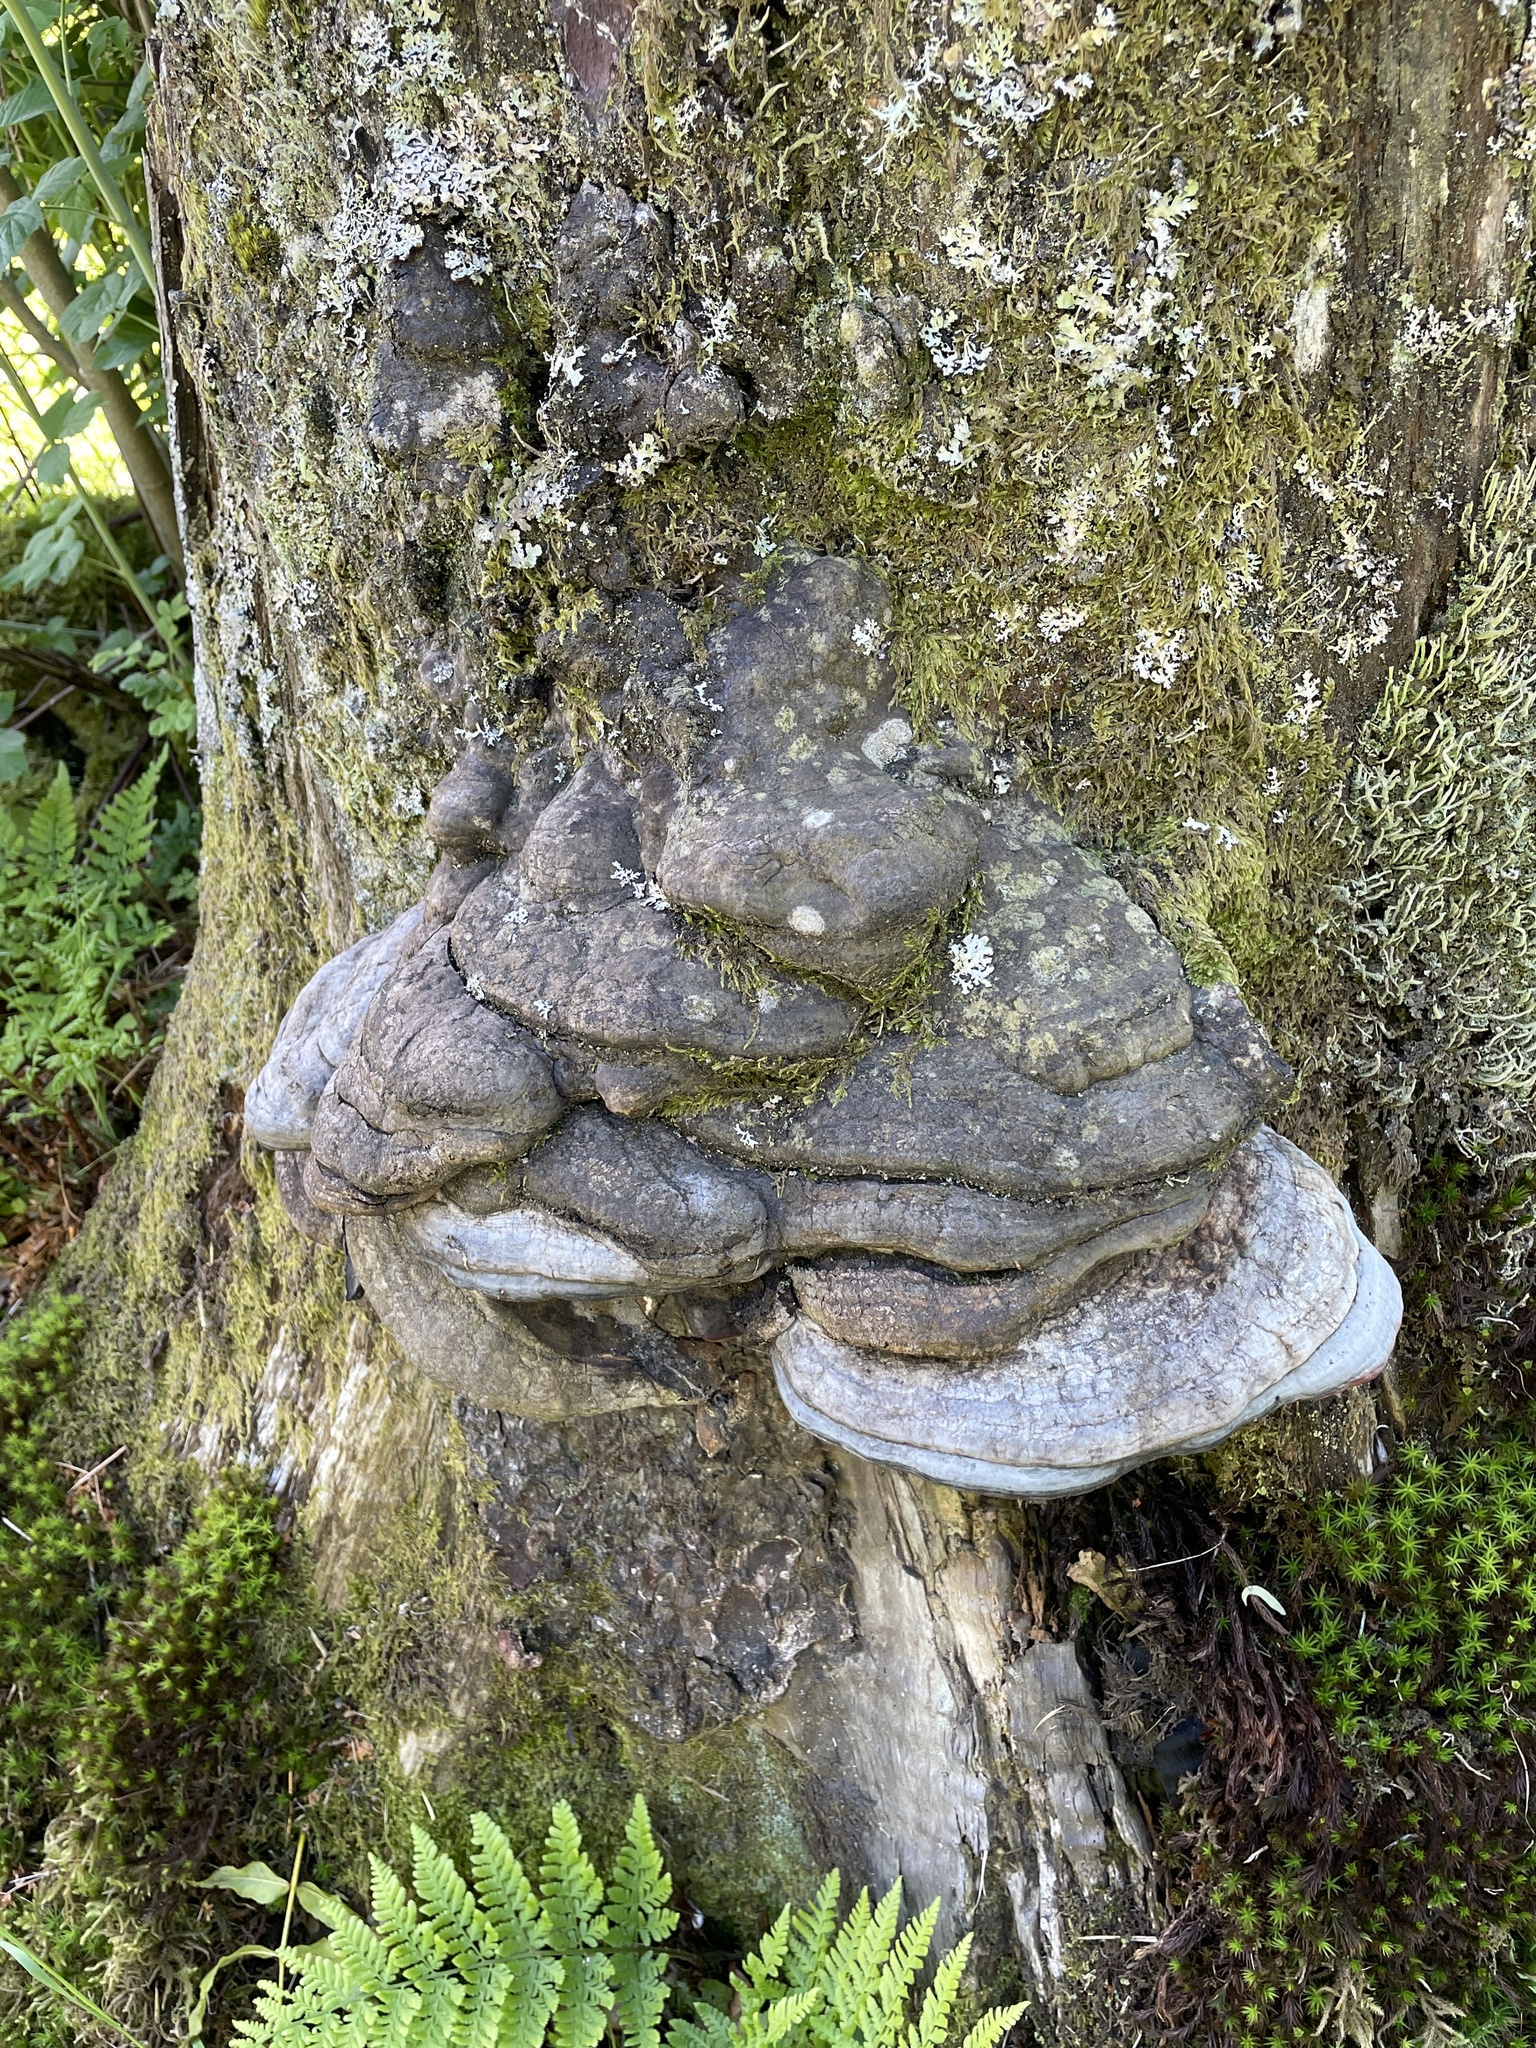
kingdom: Fungi
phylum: Basidiomycota
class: Agaricomycetes
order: Polyporales
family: Fomitopsidaceae
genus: Fomitopsis
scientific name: Fomitopsis pinicola
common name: Red-belted bracket
